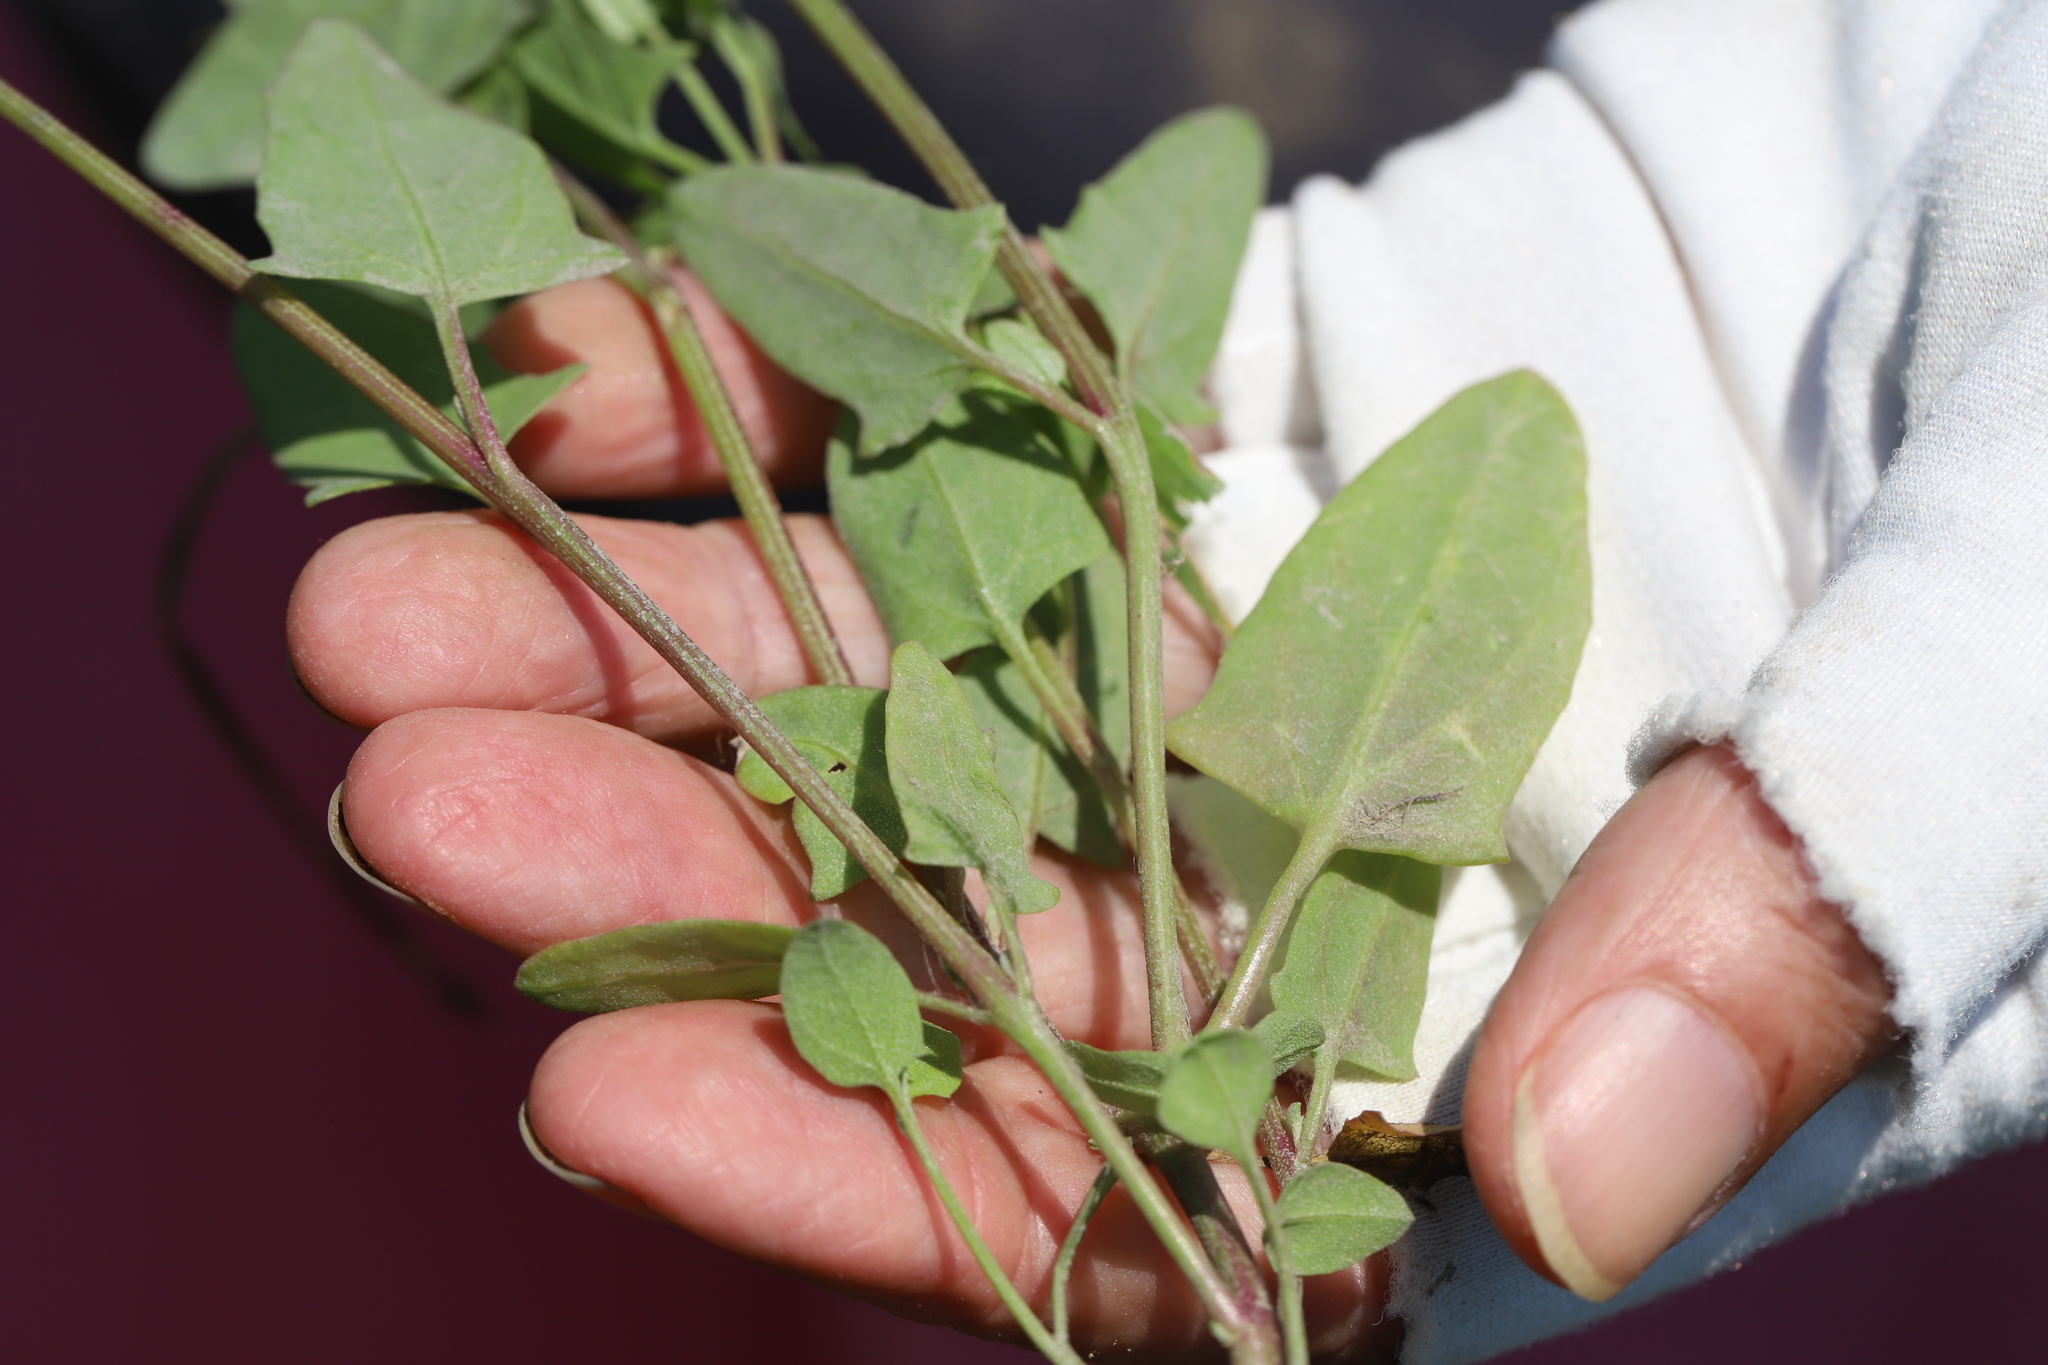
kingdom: Plantae
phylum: Tracheophyta
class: Magnoliopsida
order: Caryophyllales
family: Amaranthaceae
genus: Atriplex
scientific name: Atriplex prostrata
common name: Spear-leaved orache
